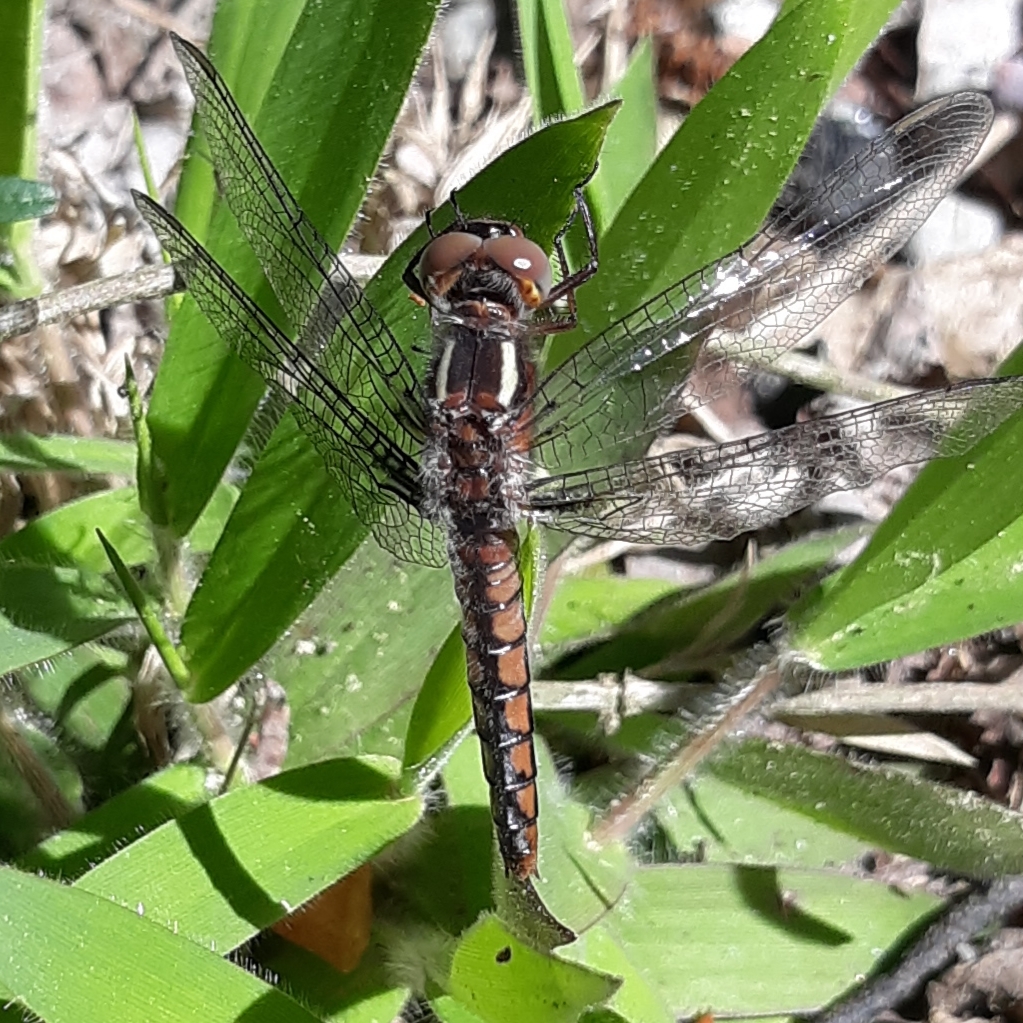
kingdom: Animalia
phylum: Arthropoda
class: Insecta
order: Odonata
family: Libellulidae
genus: Ladona
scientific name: Ladona deplanata
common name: Blue corporal
